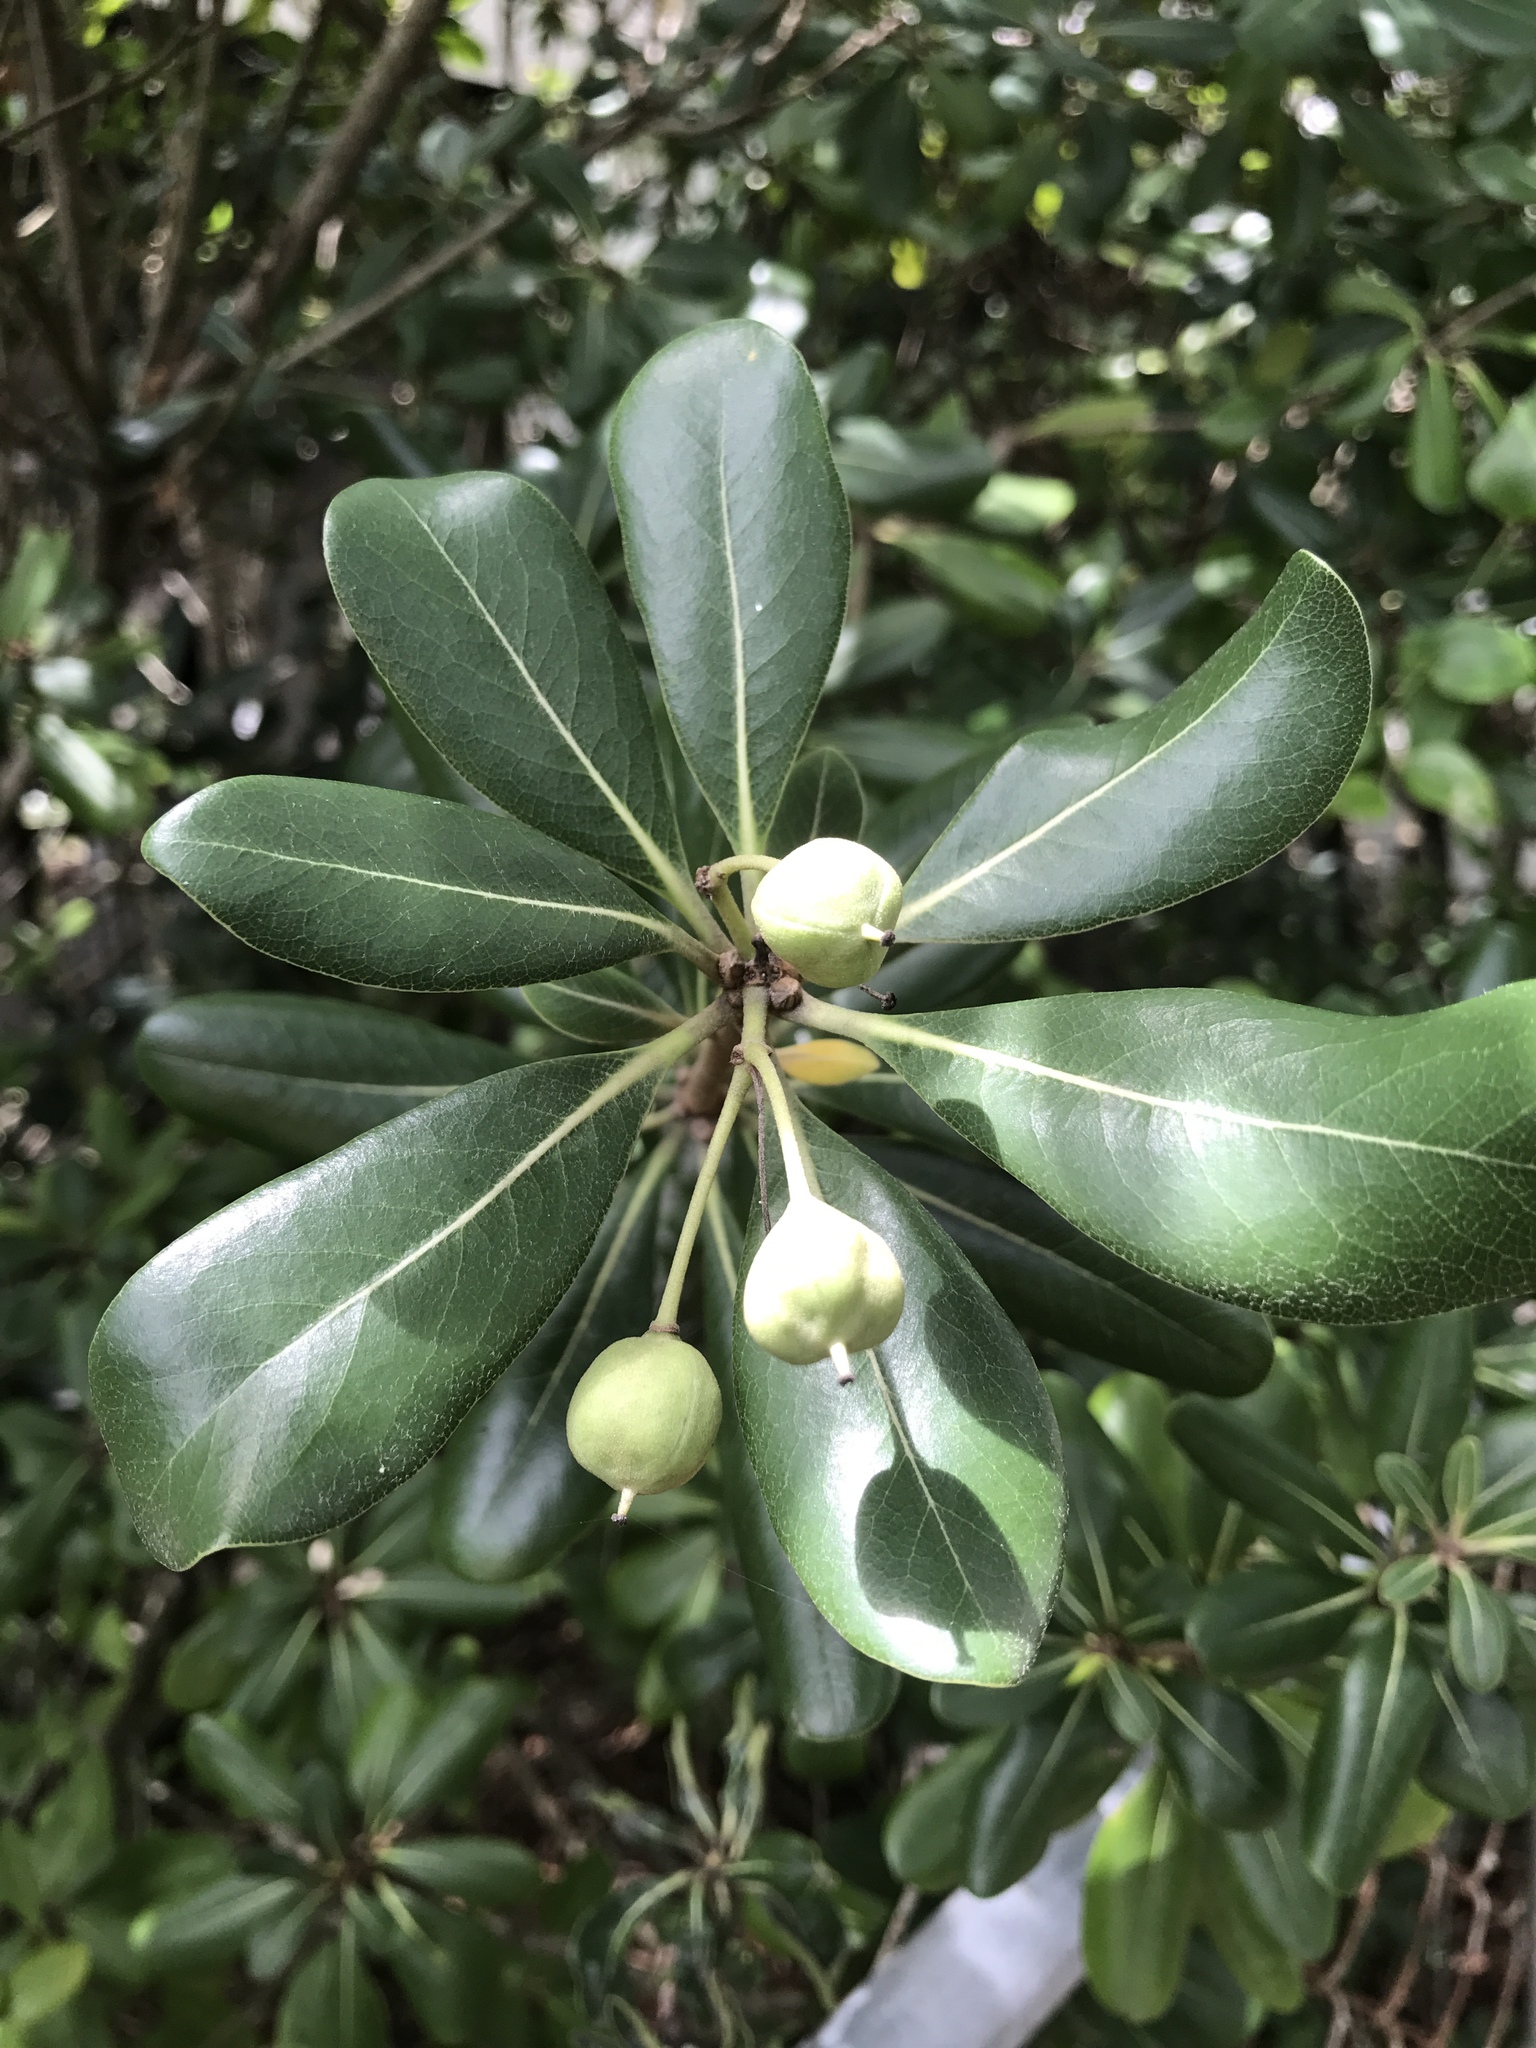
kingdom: Plantae
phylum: Tracheophyta
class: Magnoliopsida
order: Apiales
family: Pittosporaceae
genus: Pittosporum
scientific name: Pittosporum tobira
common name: Japanese cheesewood
